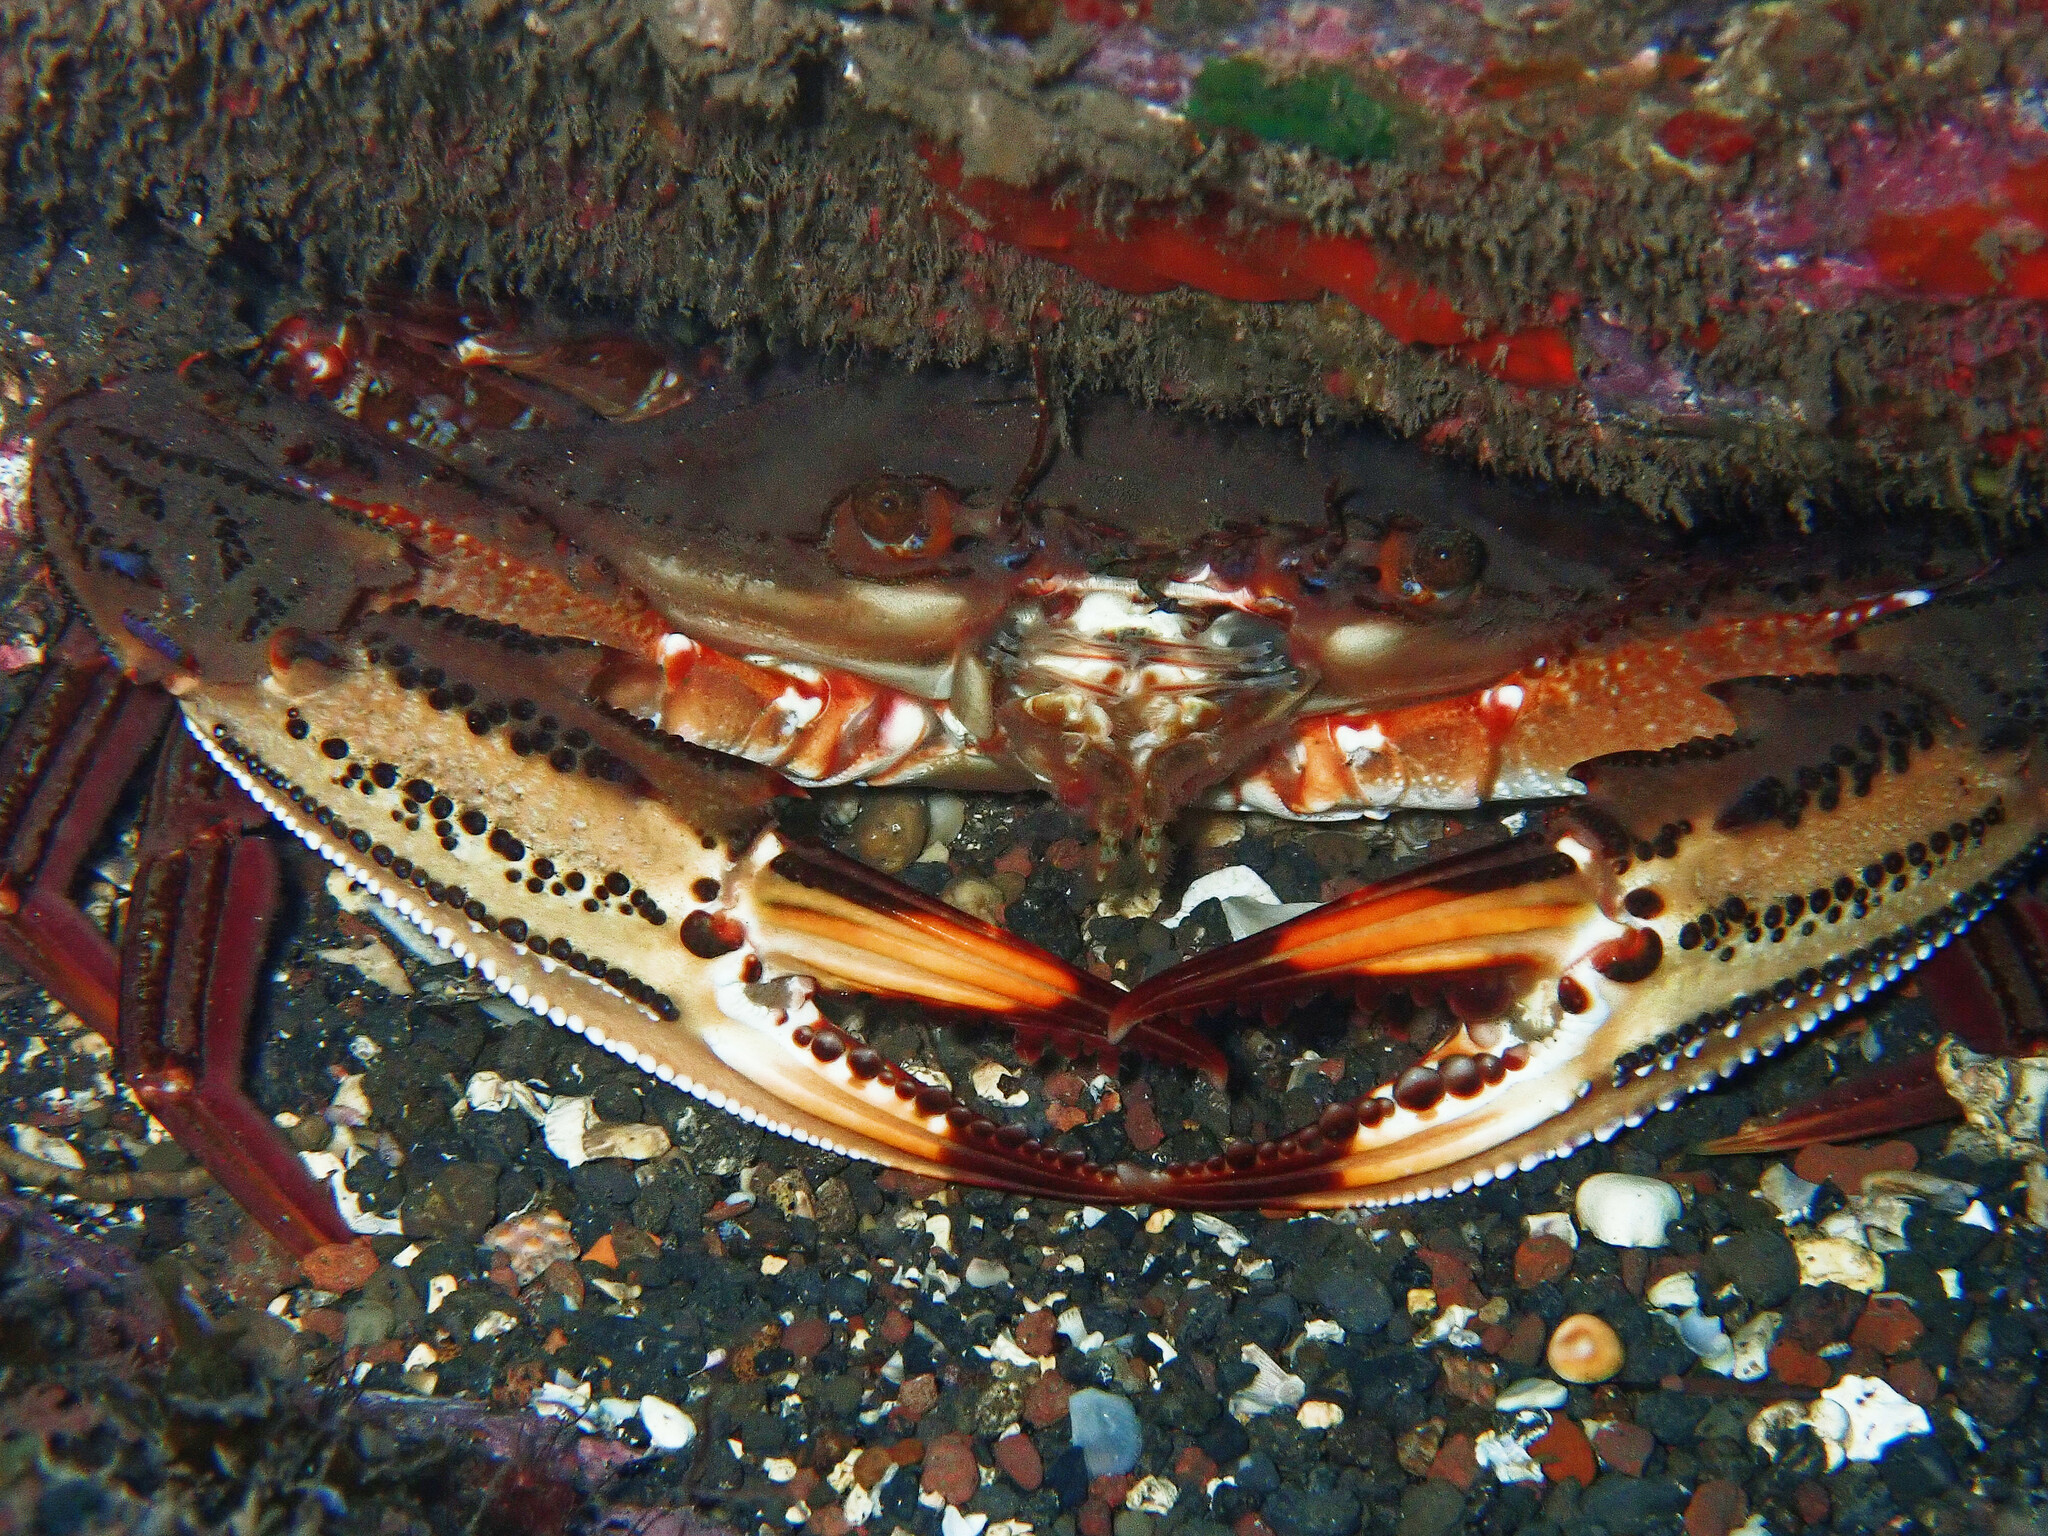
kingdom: Animalia
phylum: Arthropoda
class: Malacostraca
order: Decapoda
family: Portunidae
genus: Cronius
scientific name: Cronius ruber
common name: Red crab
